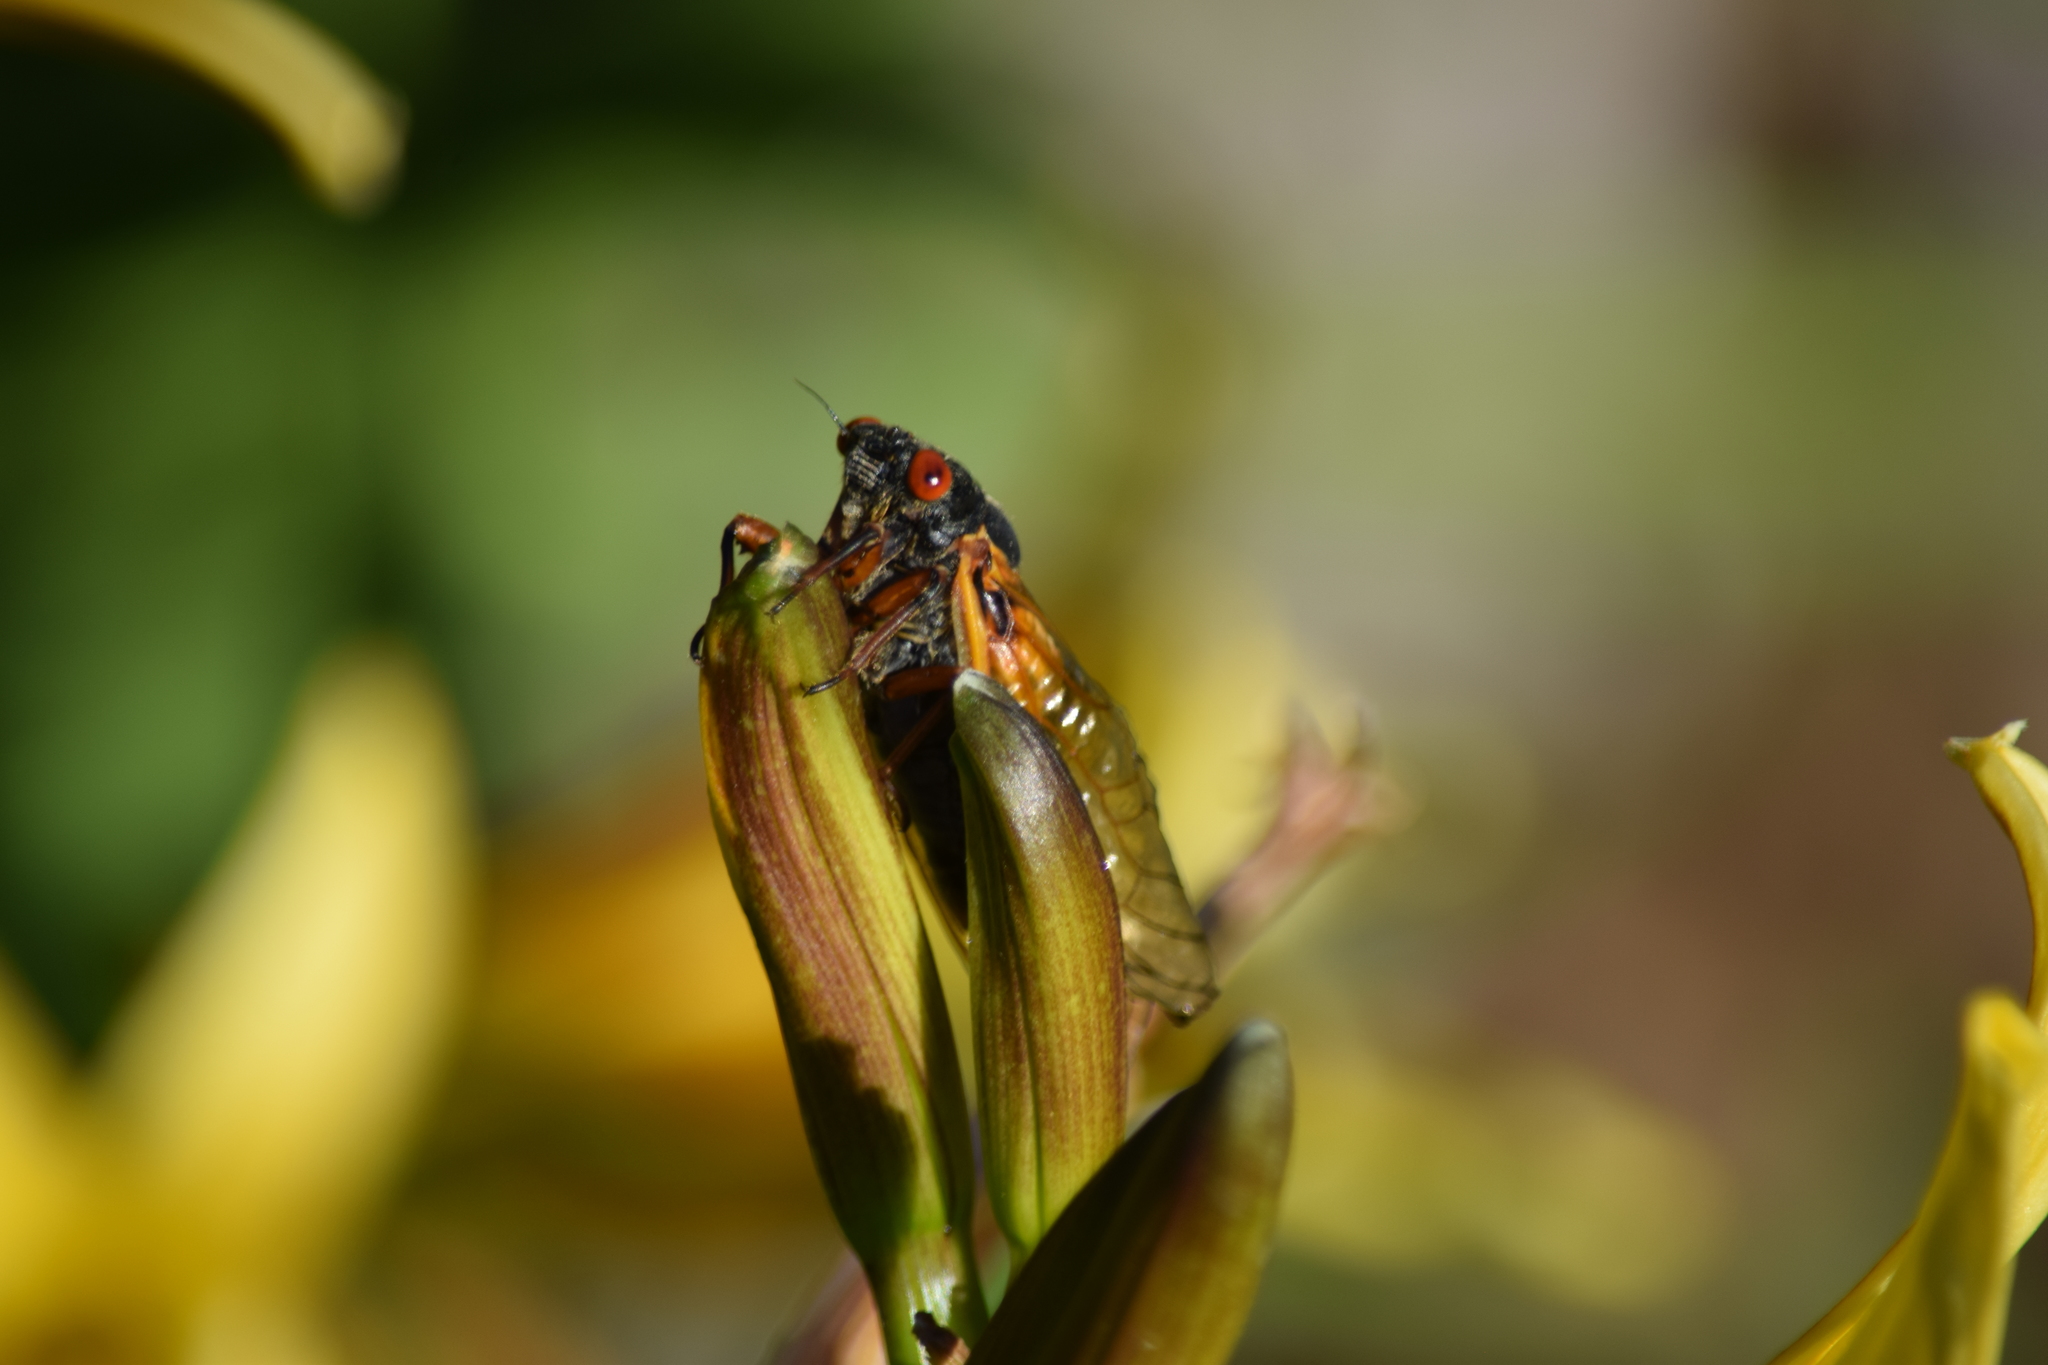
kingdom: Animalia
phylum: Arthropoda
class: Insecta
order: Hemiptera
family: Cicadidae
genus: Magicicada
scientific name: Magicicada
